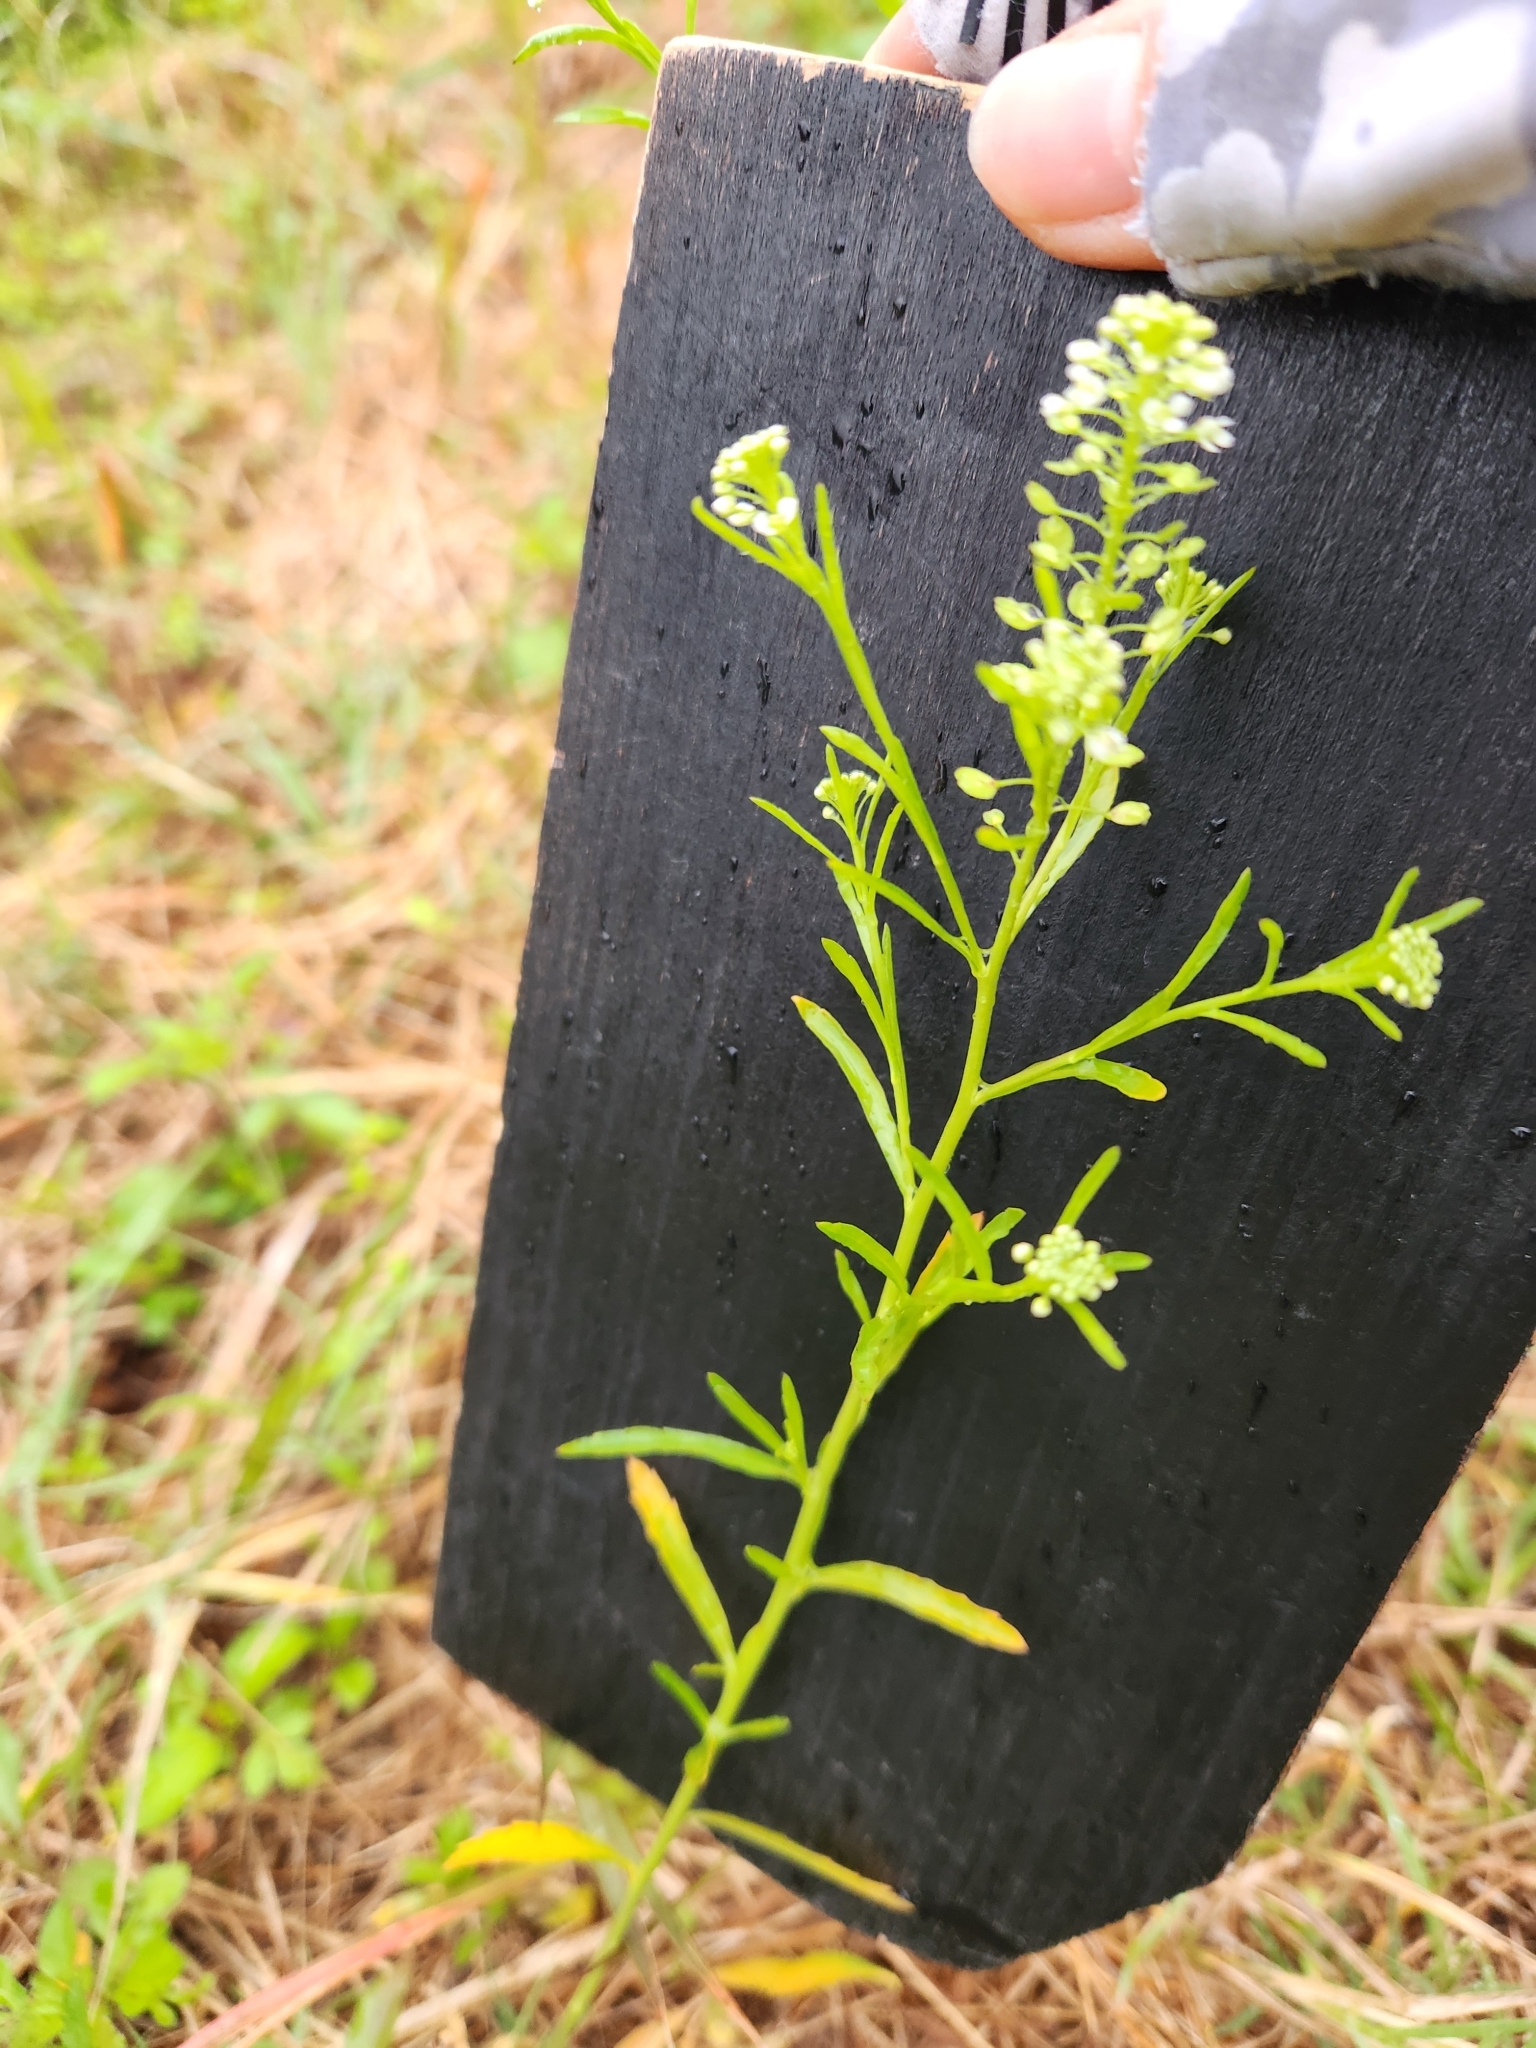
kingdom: Plantae
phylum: Tracheophyta
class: Magnoliopsida
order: Brassicales
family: Brassicaceae
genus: Lepidium
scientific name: Lepidium virginicum
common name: Least pepperwort
